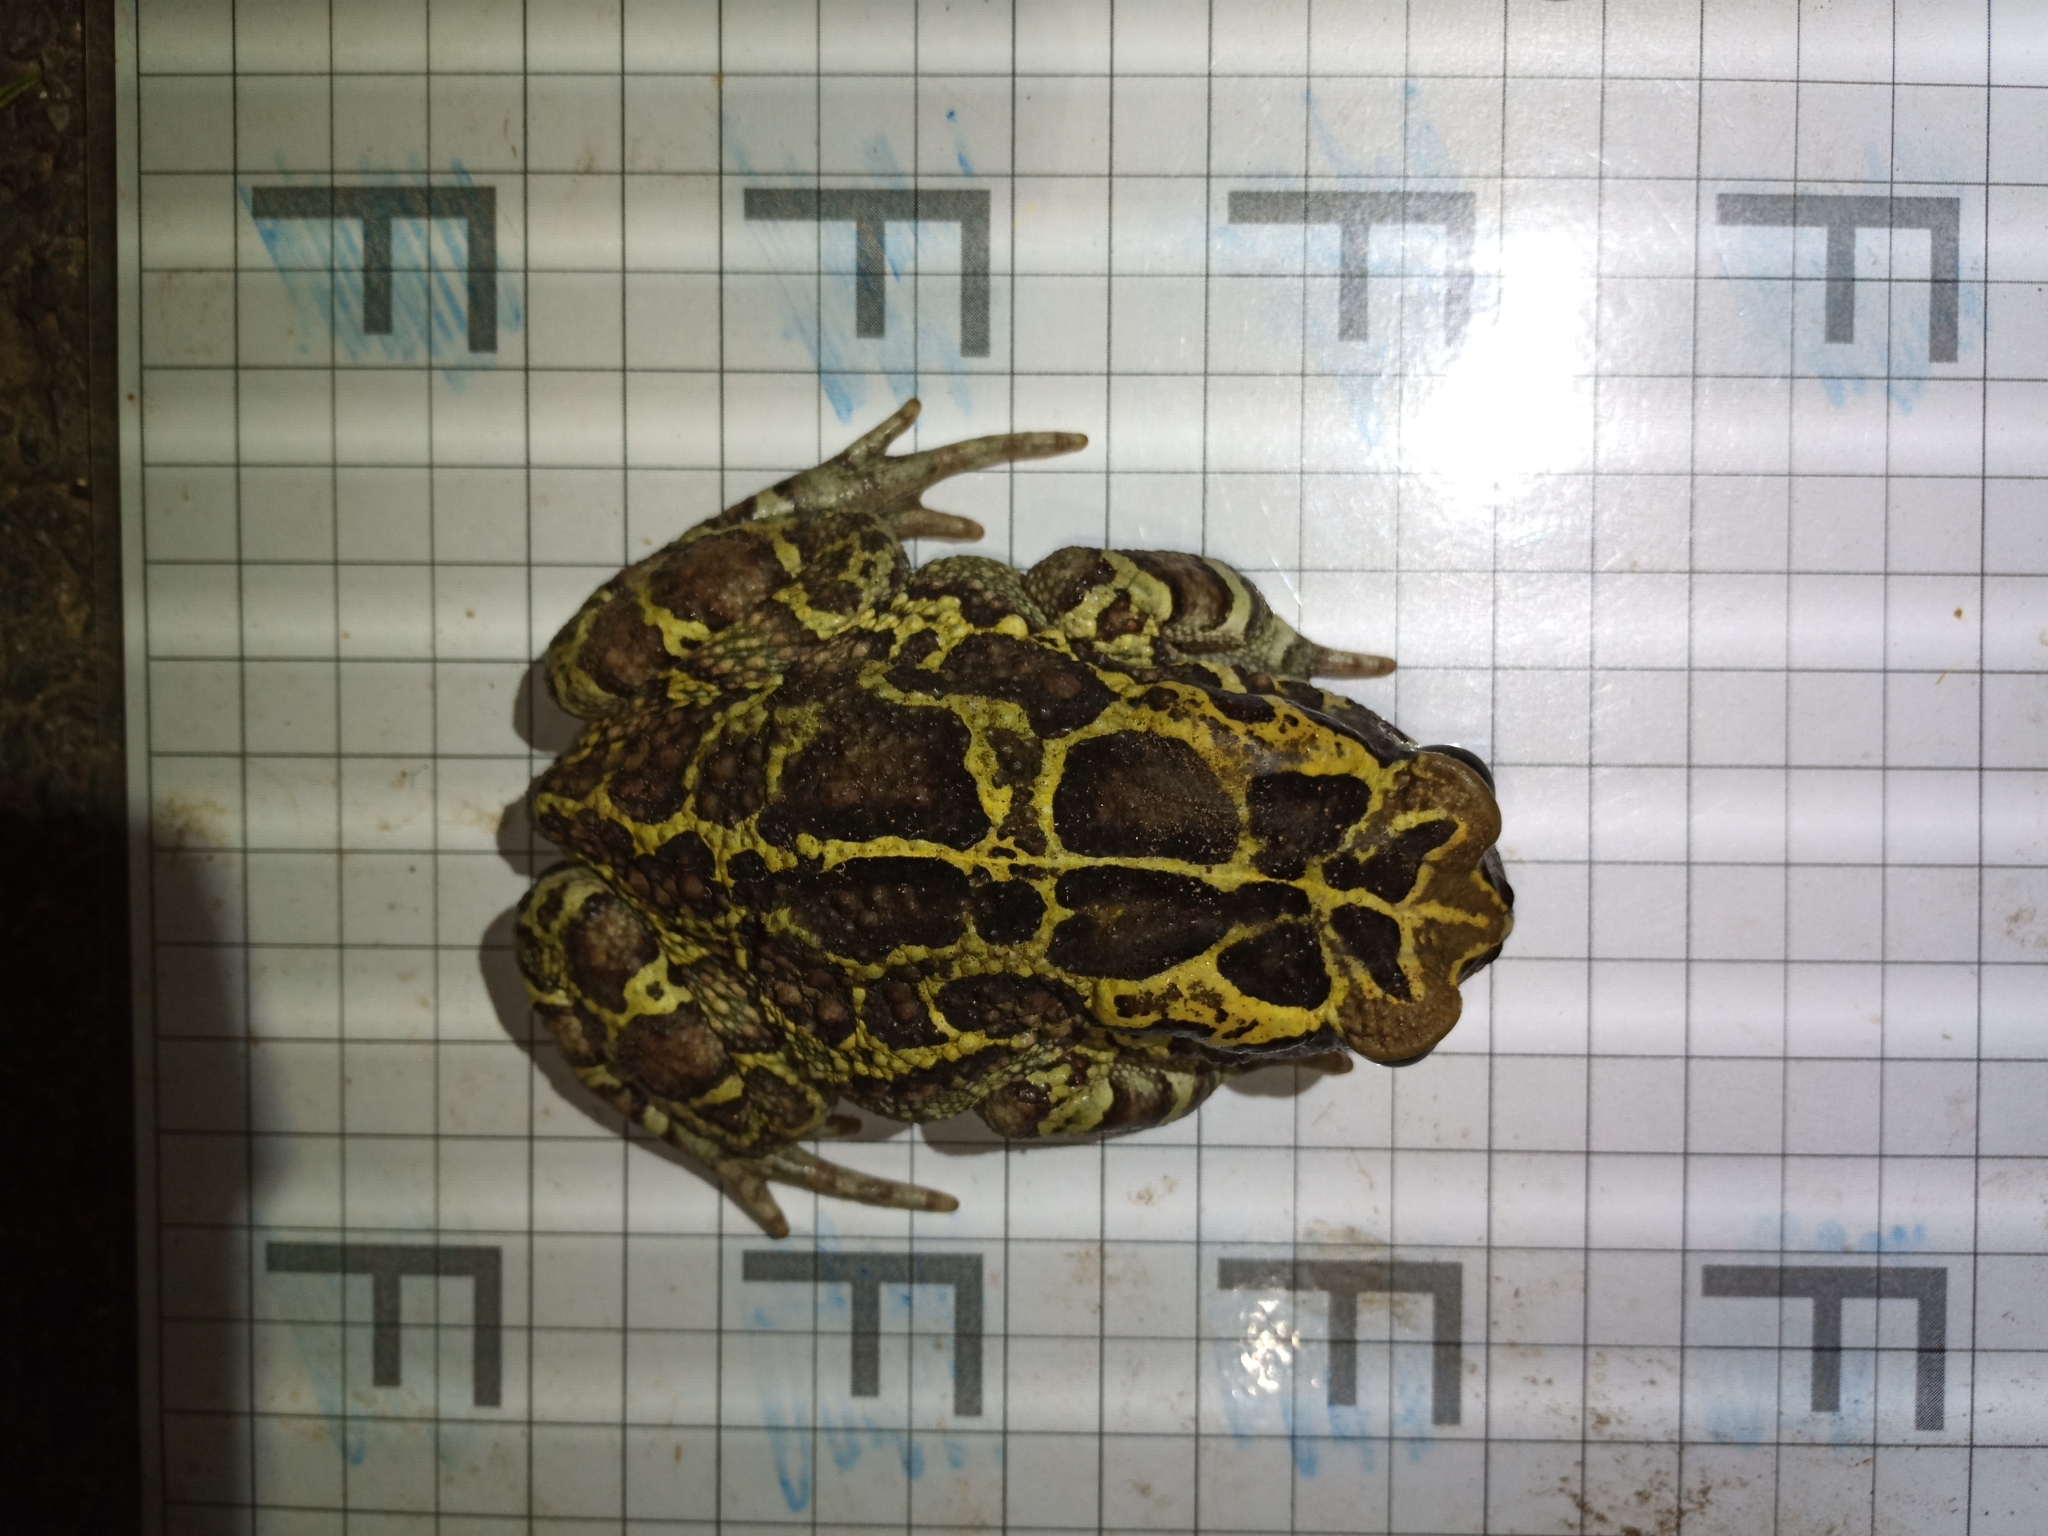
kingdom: Animalia
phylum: Chordata
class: Amphibia
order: Anura
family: Bufonidae
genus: Sclerophrys
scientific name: Sclerophrys pantherina
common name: Panther toad
